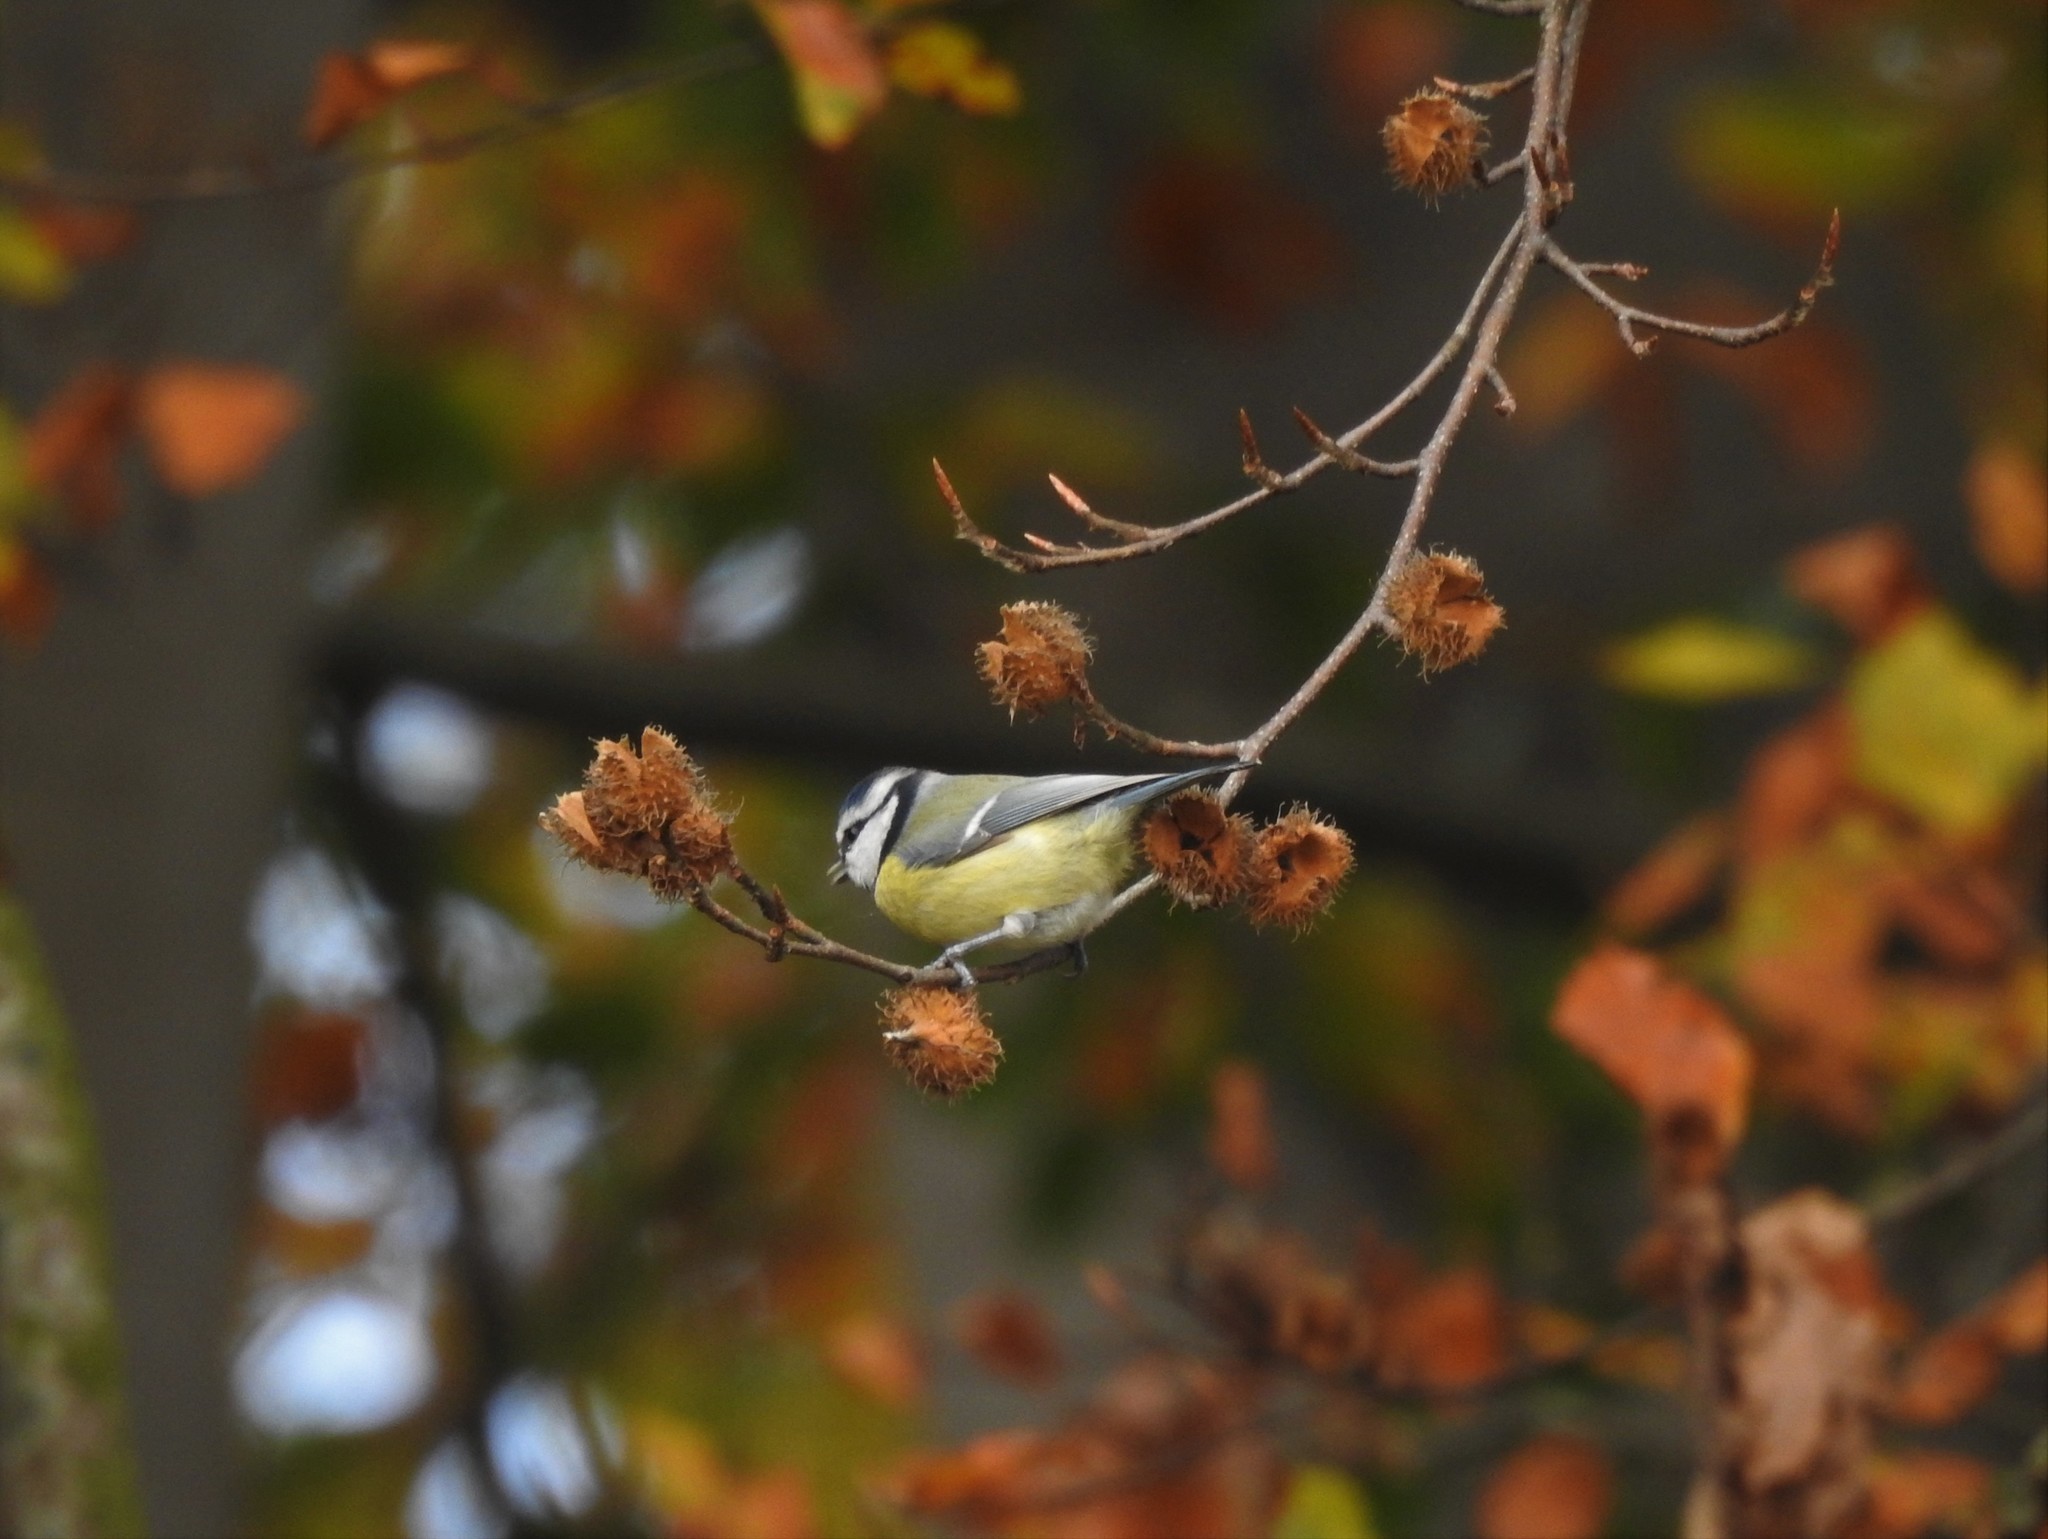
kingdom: Animalia
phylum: Chordata
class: Aves
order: Passeriformes
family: Paridae
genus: Cyanistes
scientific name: Cyanistes caeruleus
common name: Eurasian blue tit
